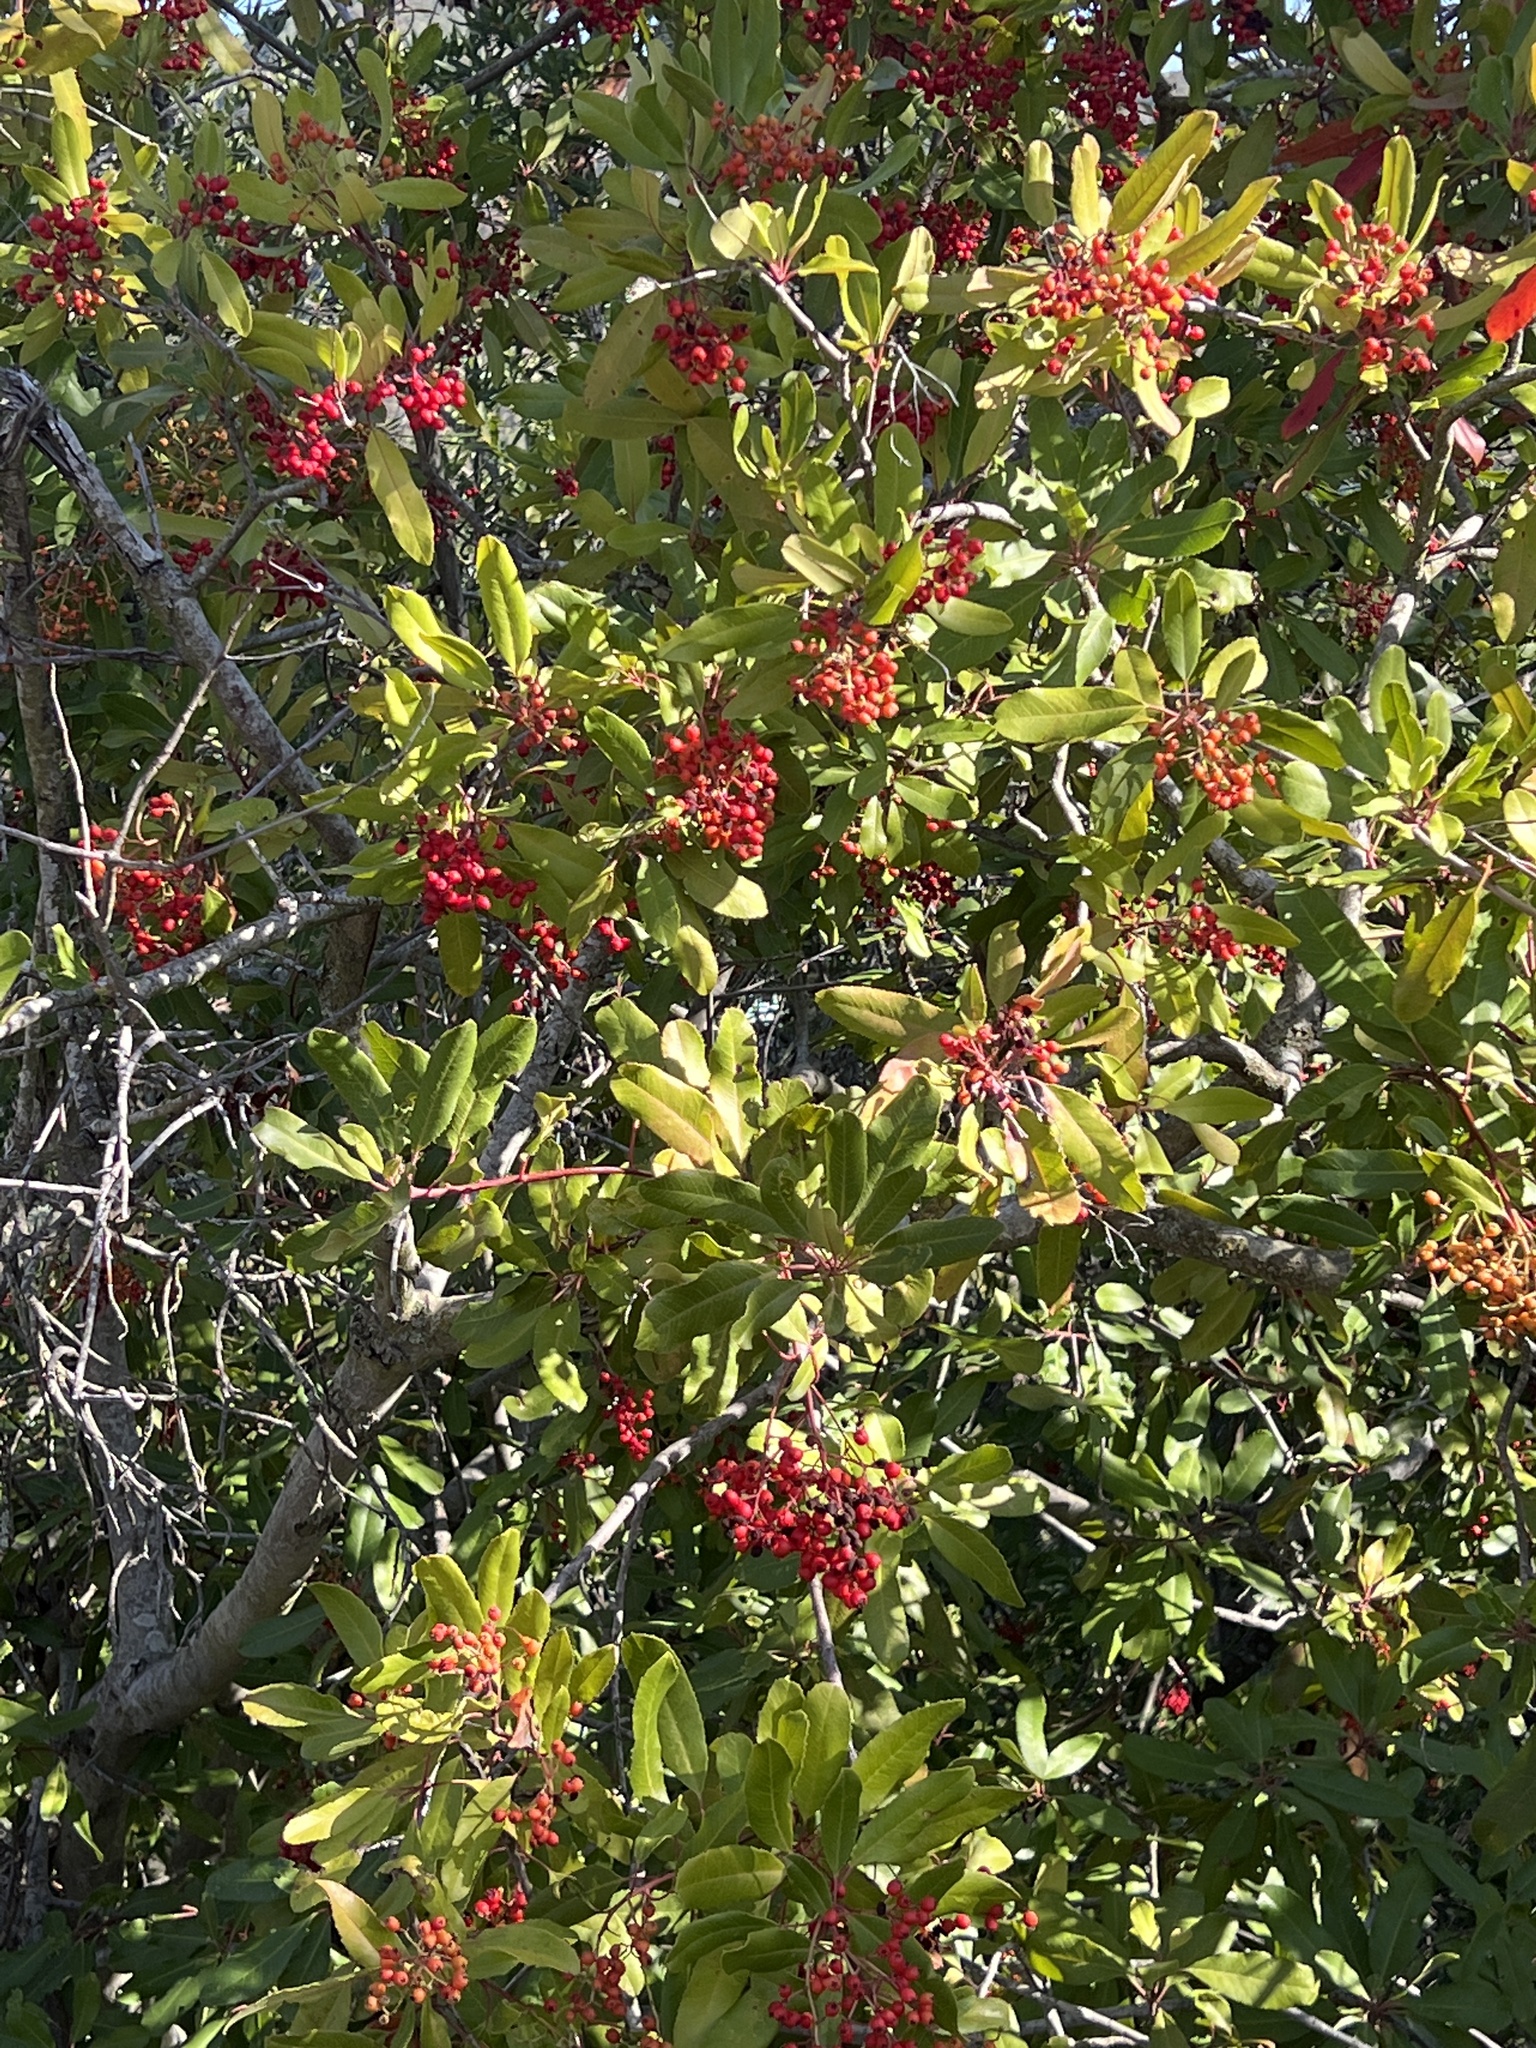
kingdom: Plantae
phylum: Tracheophyta
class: Magnoliopsida
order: Rosales
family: Rosaceae
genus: Heteromeles
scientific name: Heteromeles arbutifolia
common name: California-holly
